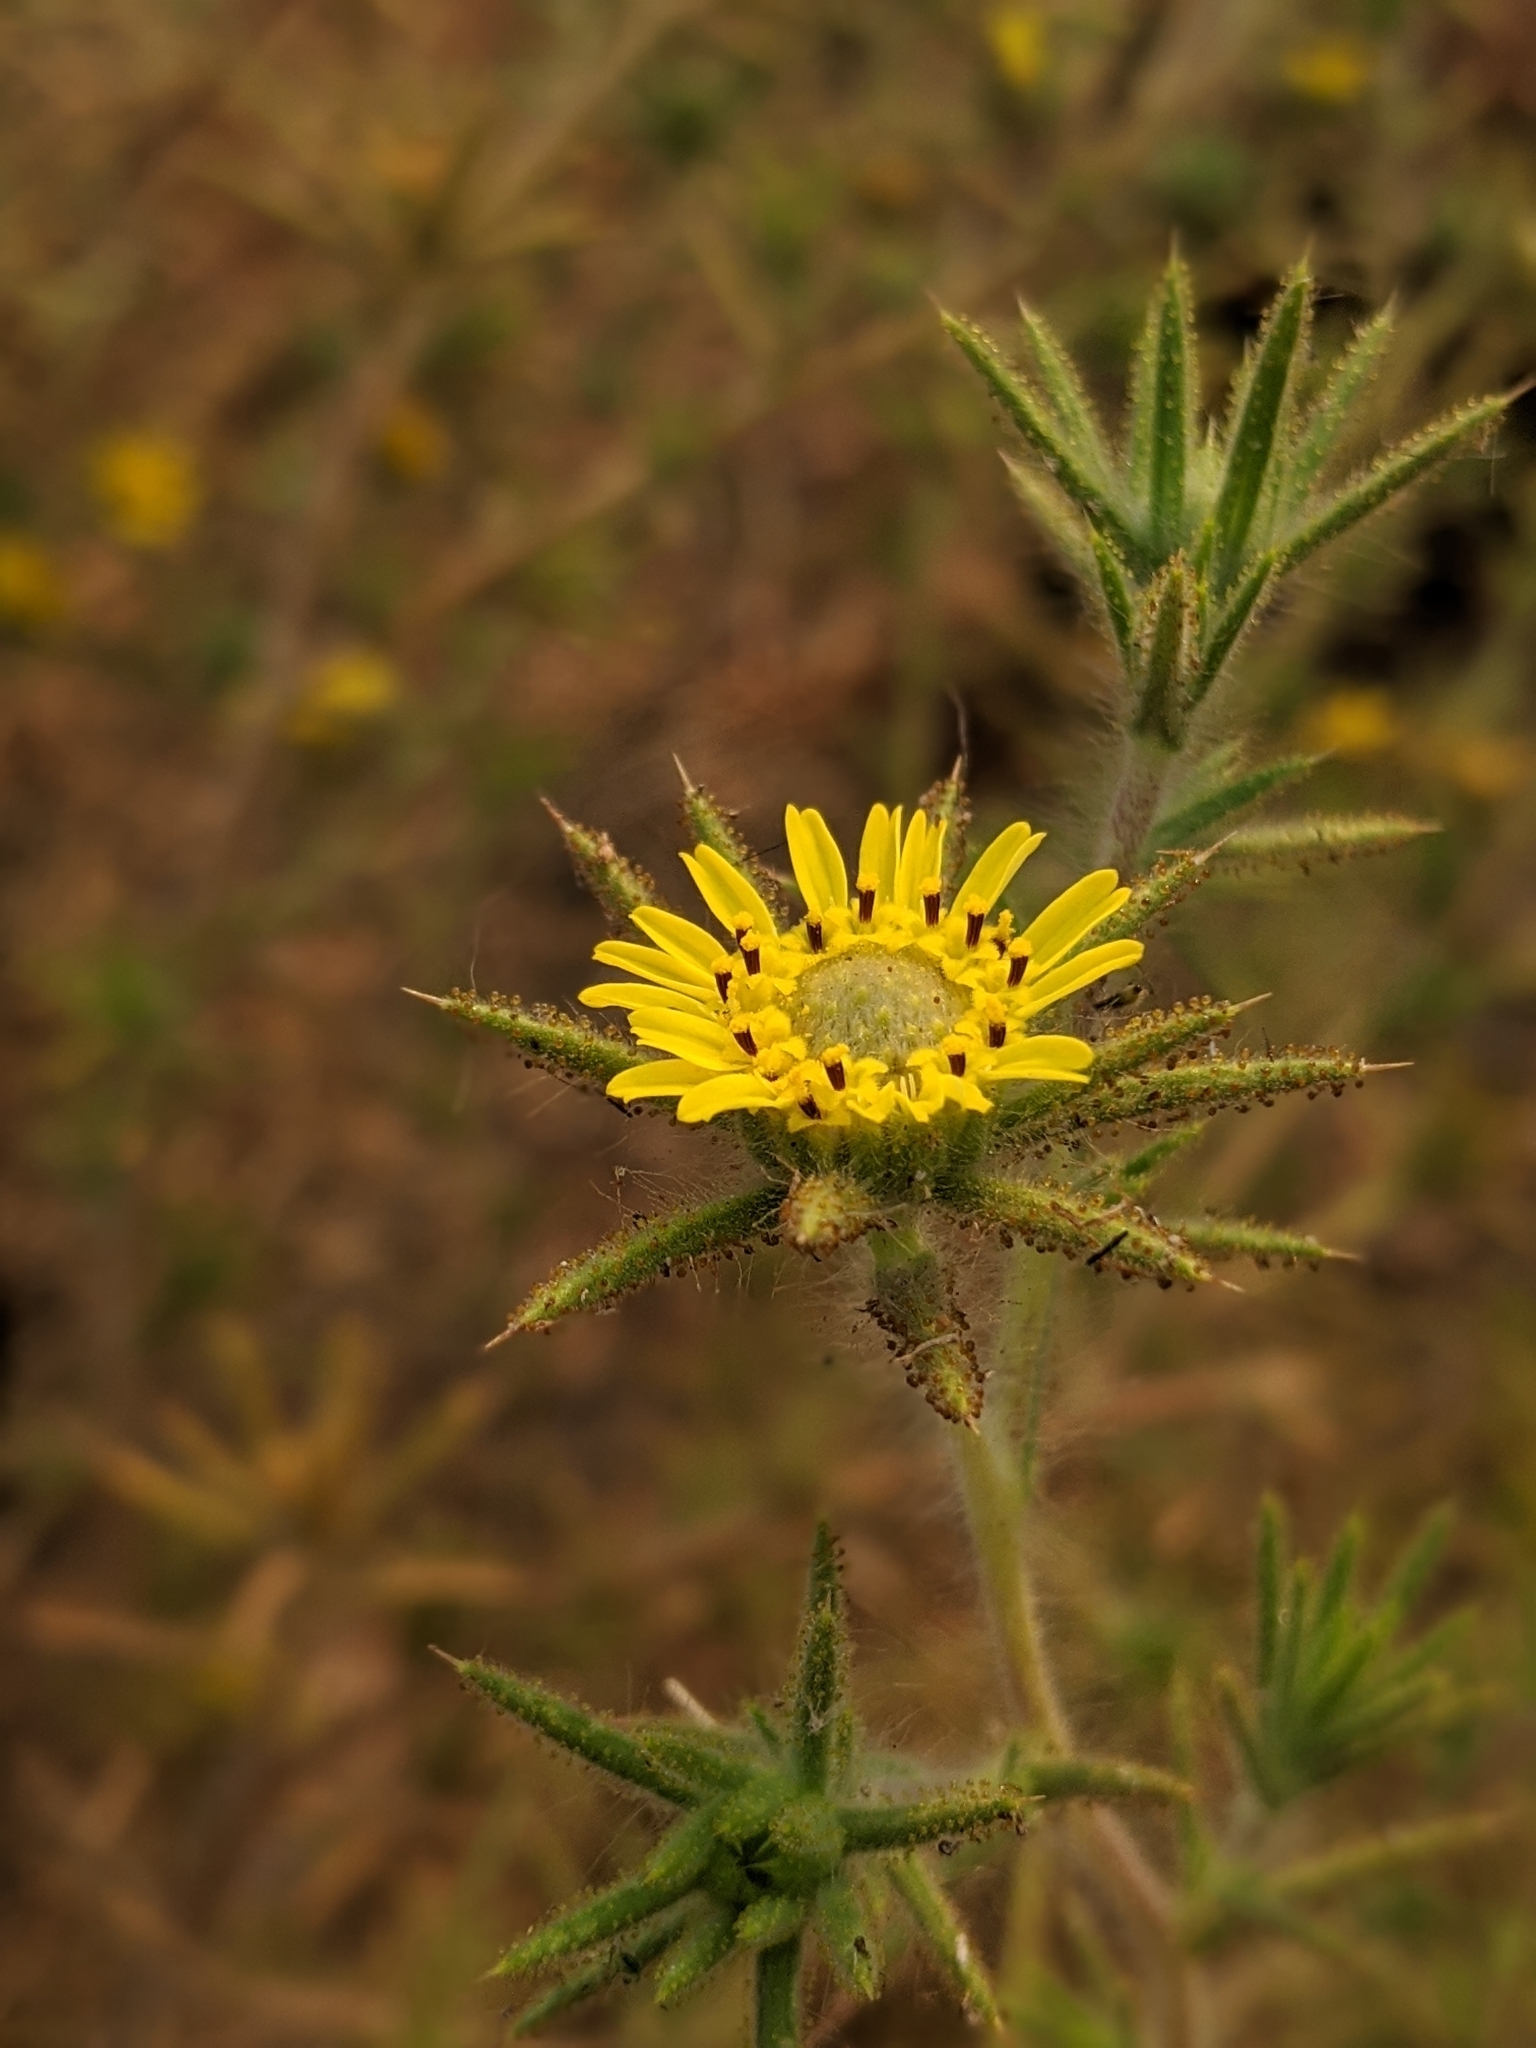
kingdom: Plantae
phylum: Tracheophyta
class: Magnoliopsida
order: Asterales
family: Asteraceae
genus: Centromadia
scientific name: Centromadia fitchii
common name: Fitch's spikeweed
